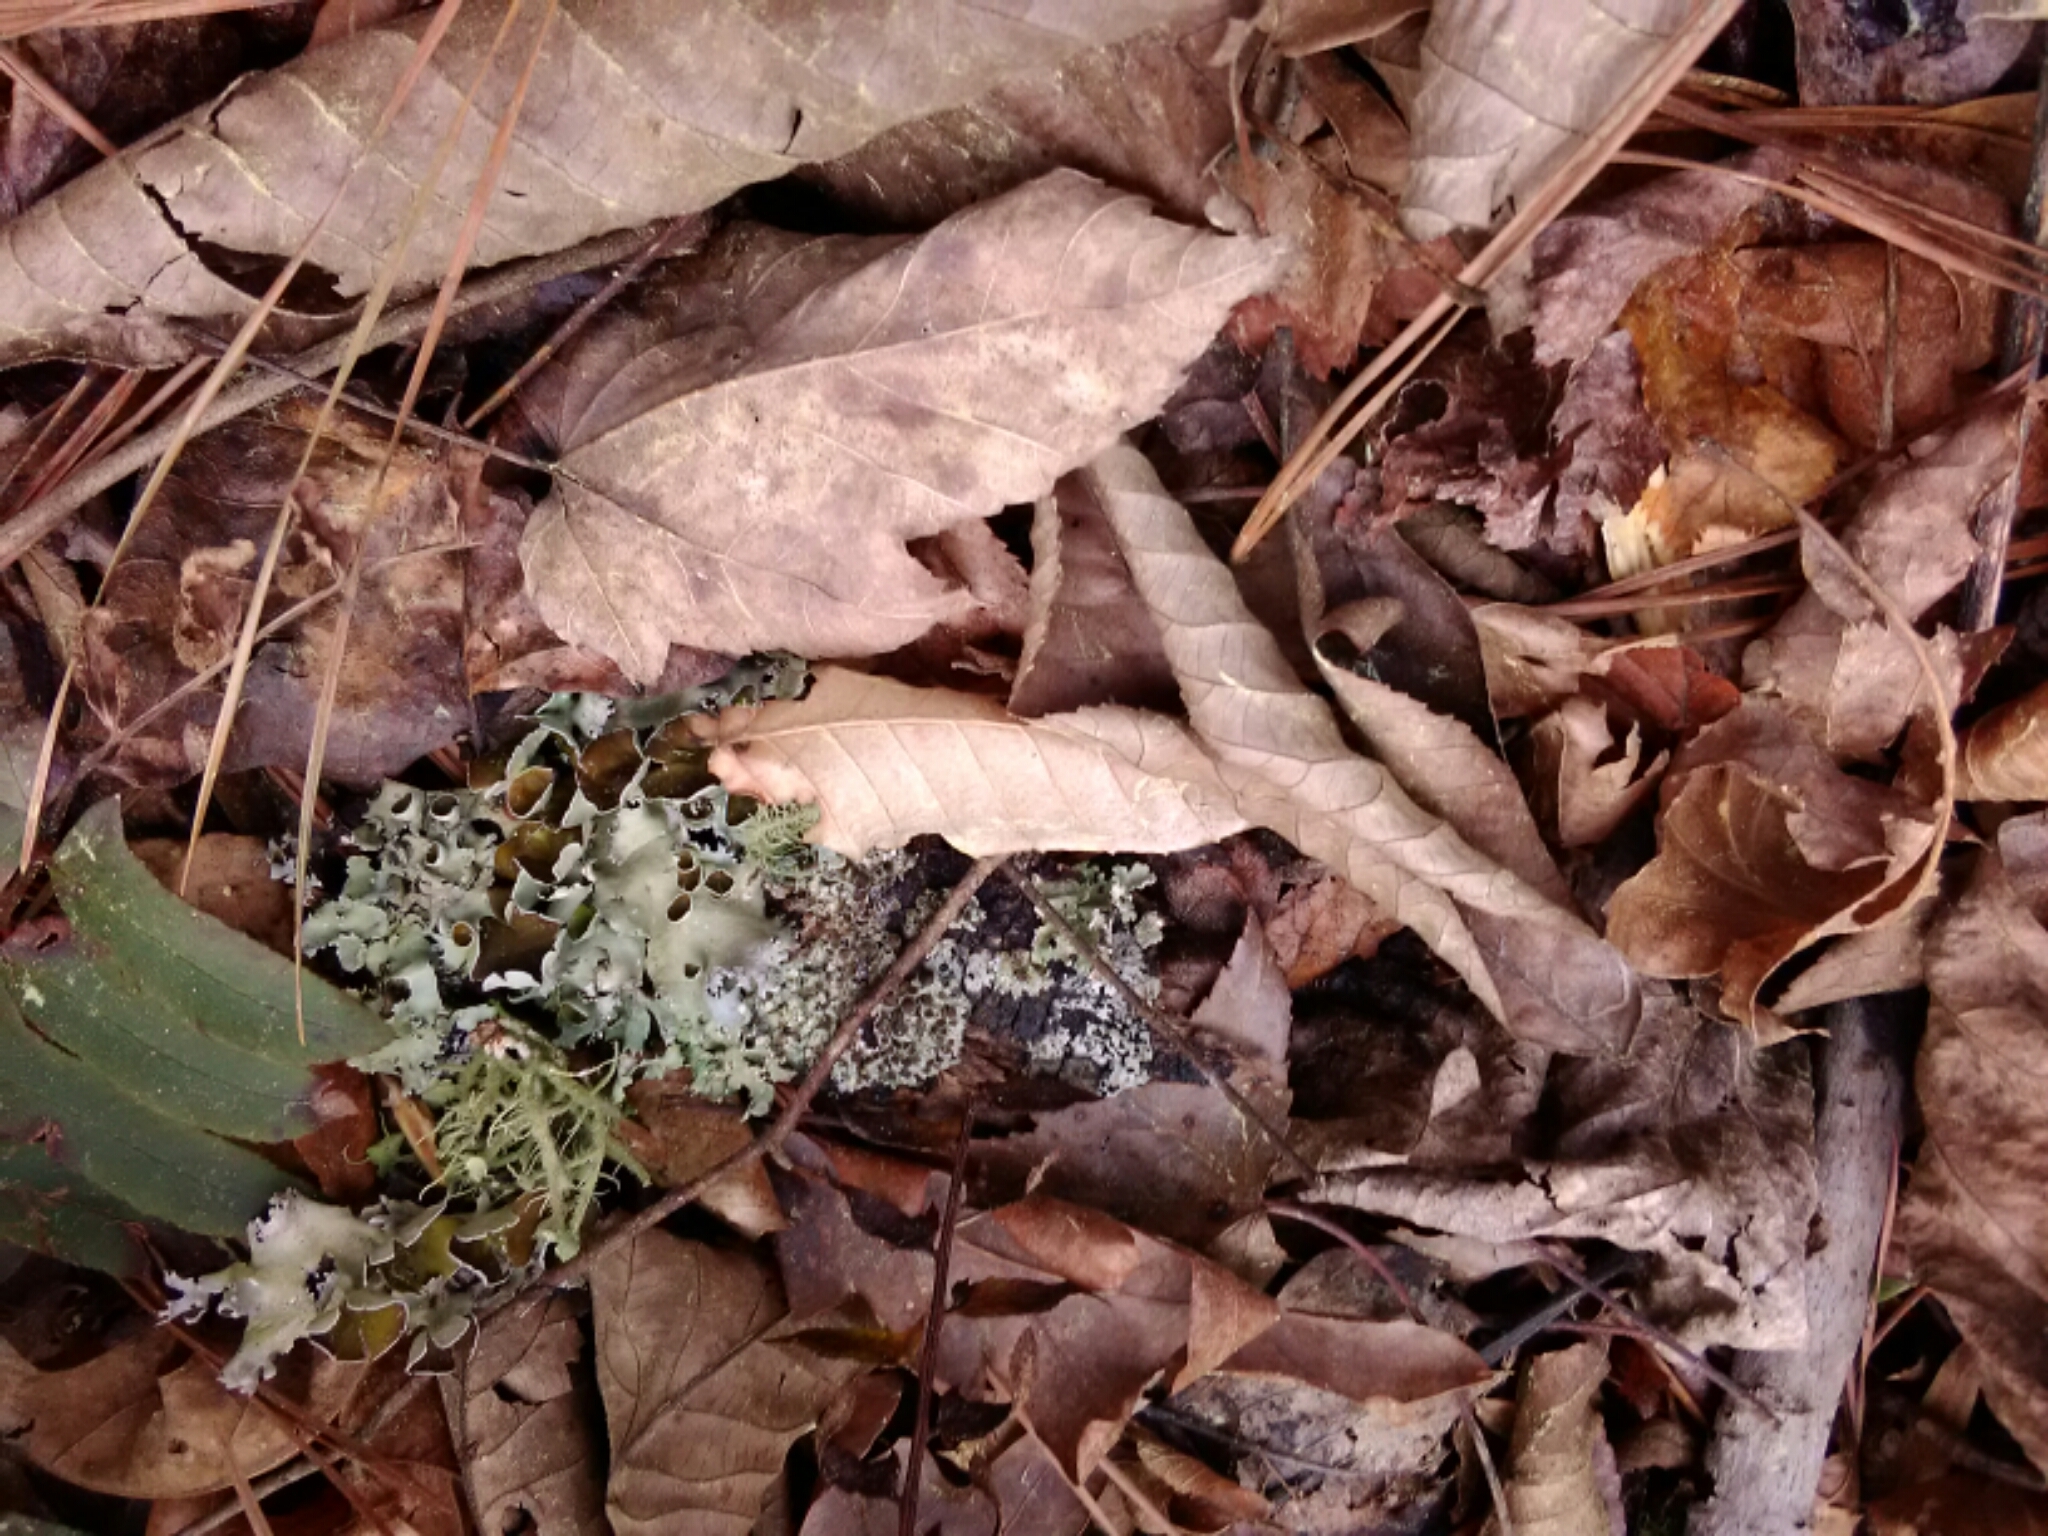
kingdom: Fungi
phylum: Ascomycota
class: Lecanoromycetes
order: Lecanorales
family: Parmeliaceae
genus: Parmotrema
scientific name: Parmotrema perforatum
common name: Perforated ruffle lichen
